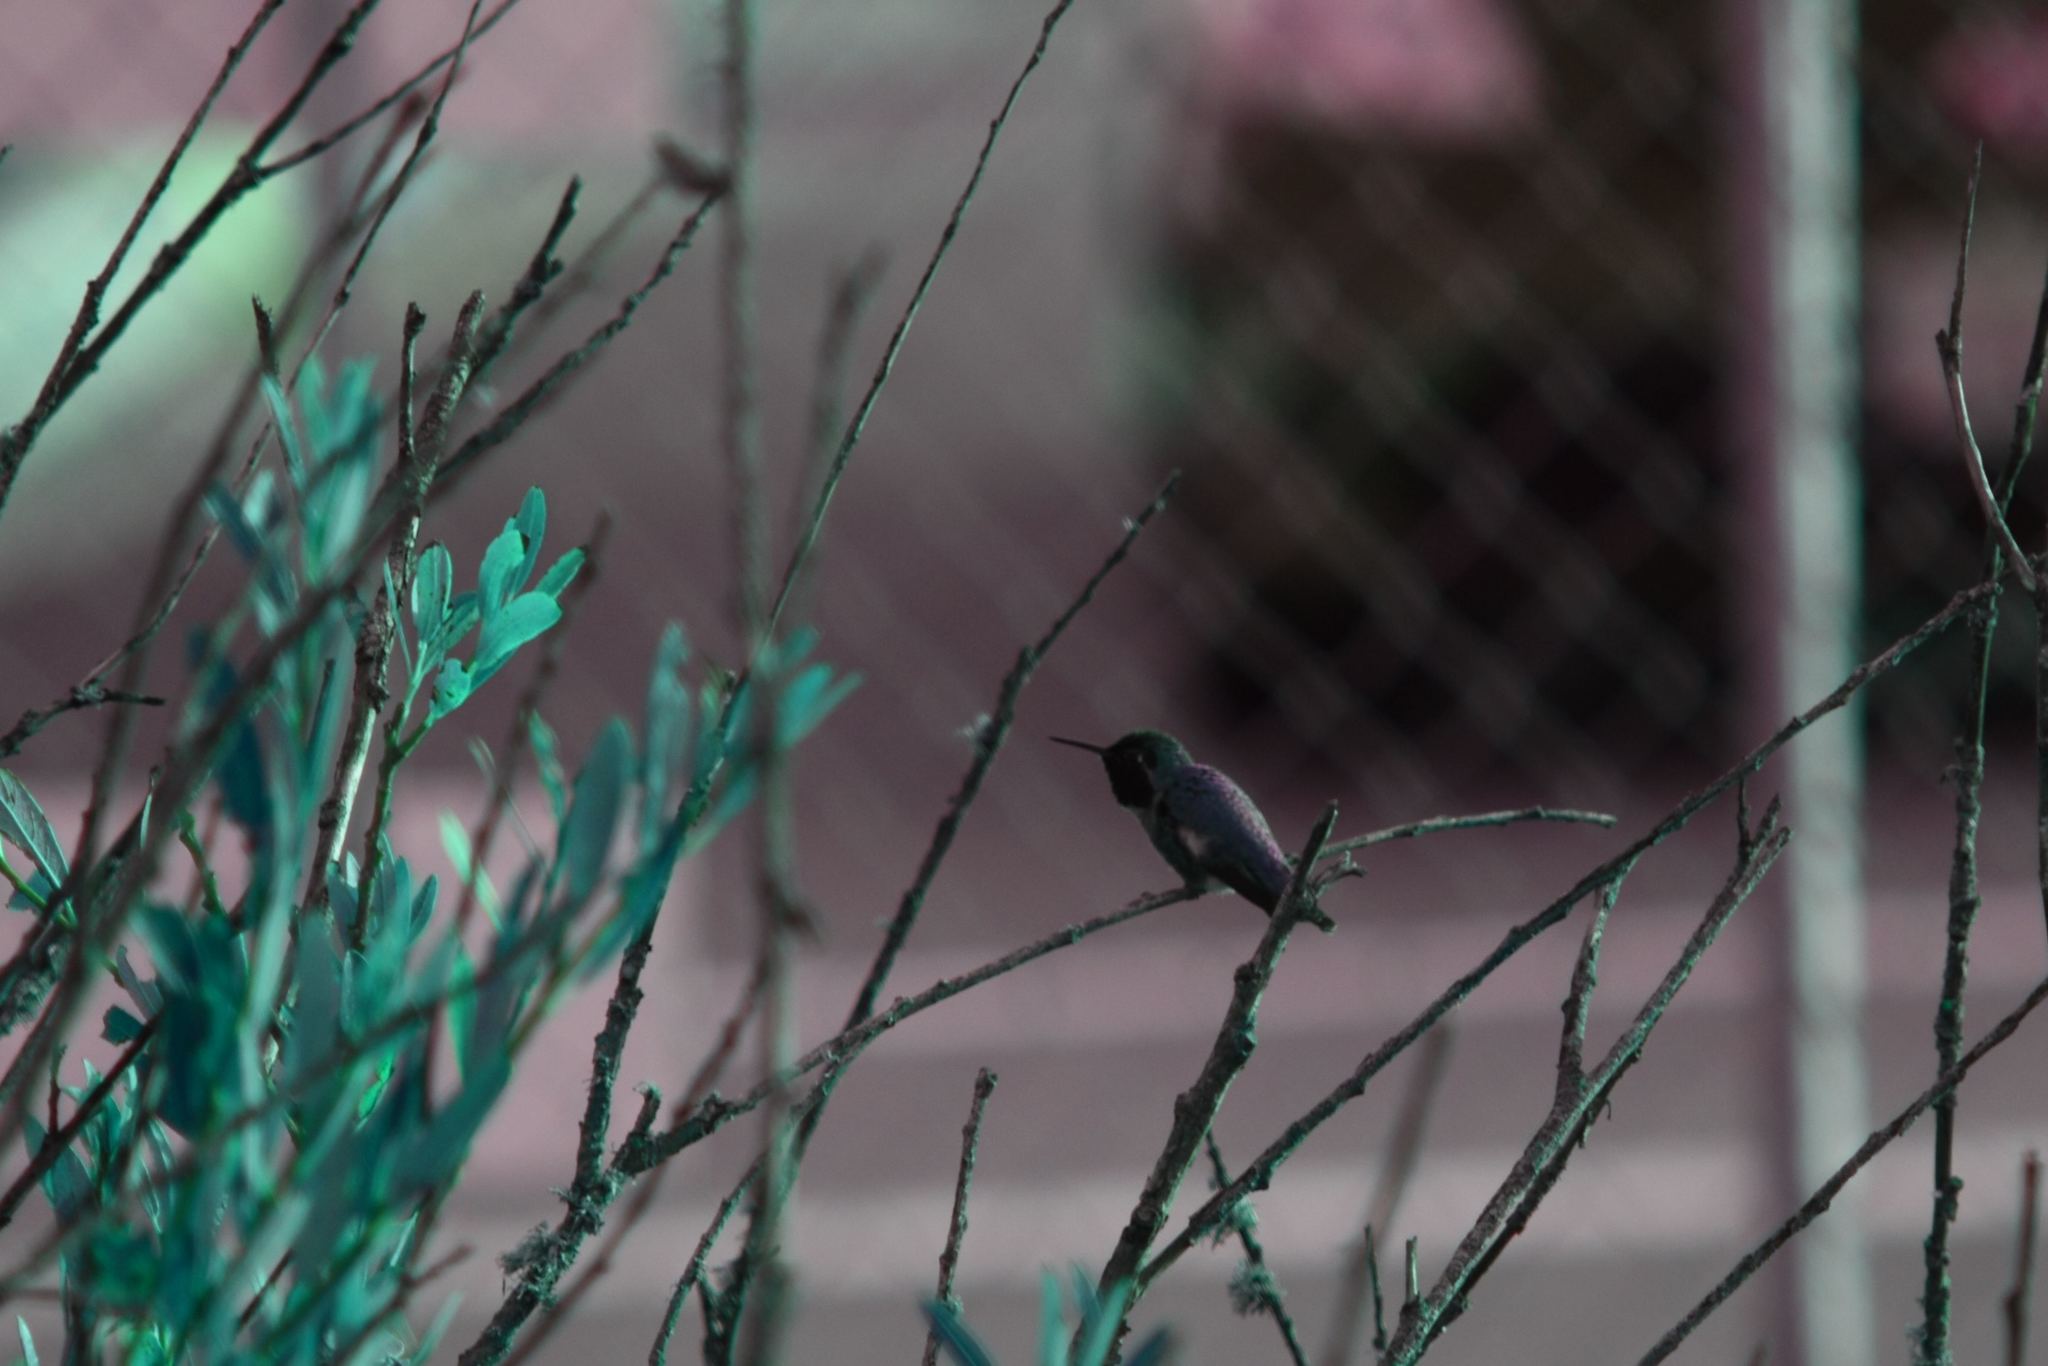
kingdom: Animalia
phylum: Chordata
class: Aves
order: Apodiformes
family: Trochilidae
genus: Calypte
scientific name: Calypte anna
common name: Anna's hummingbird
